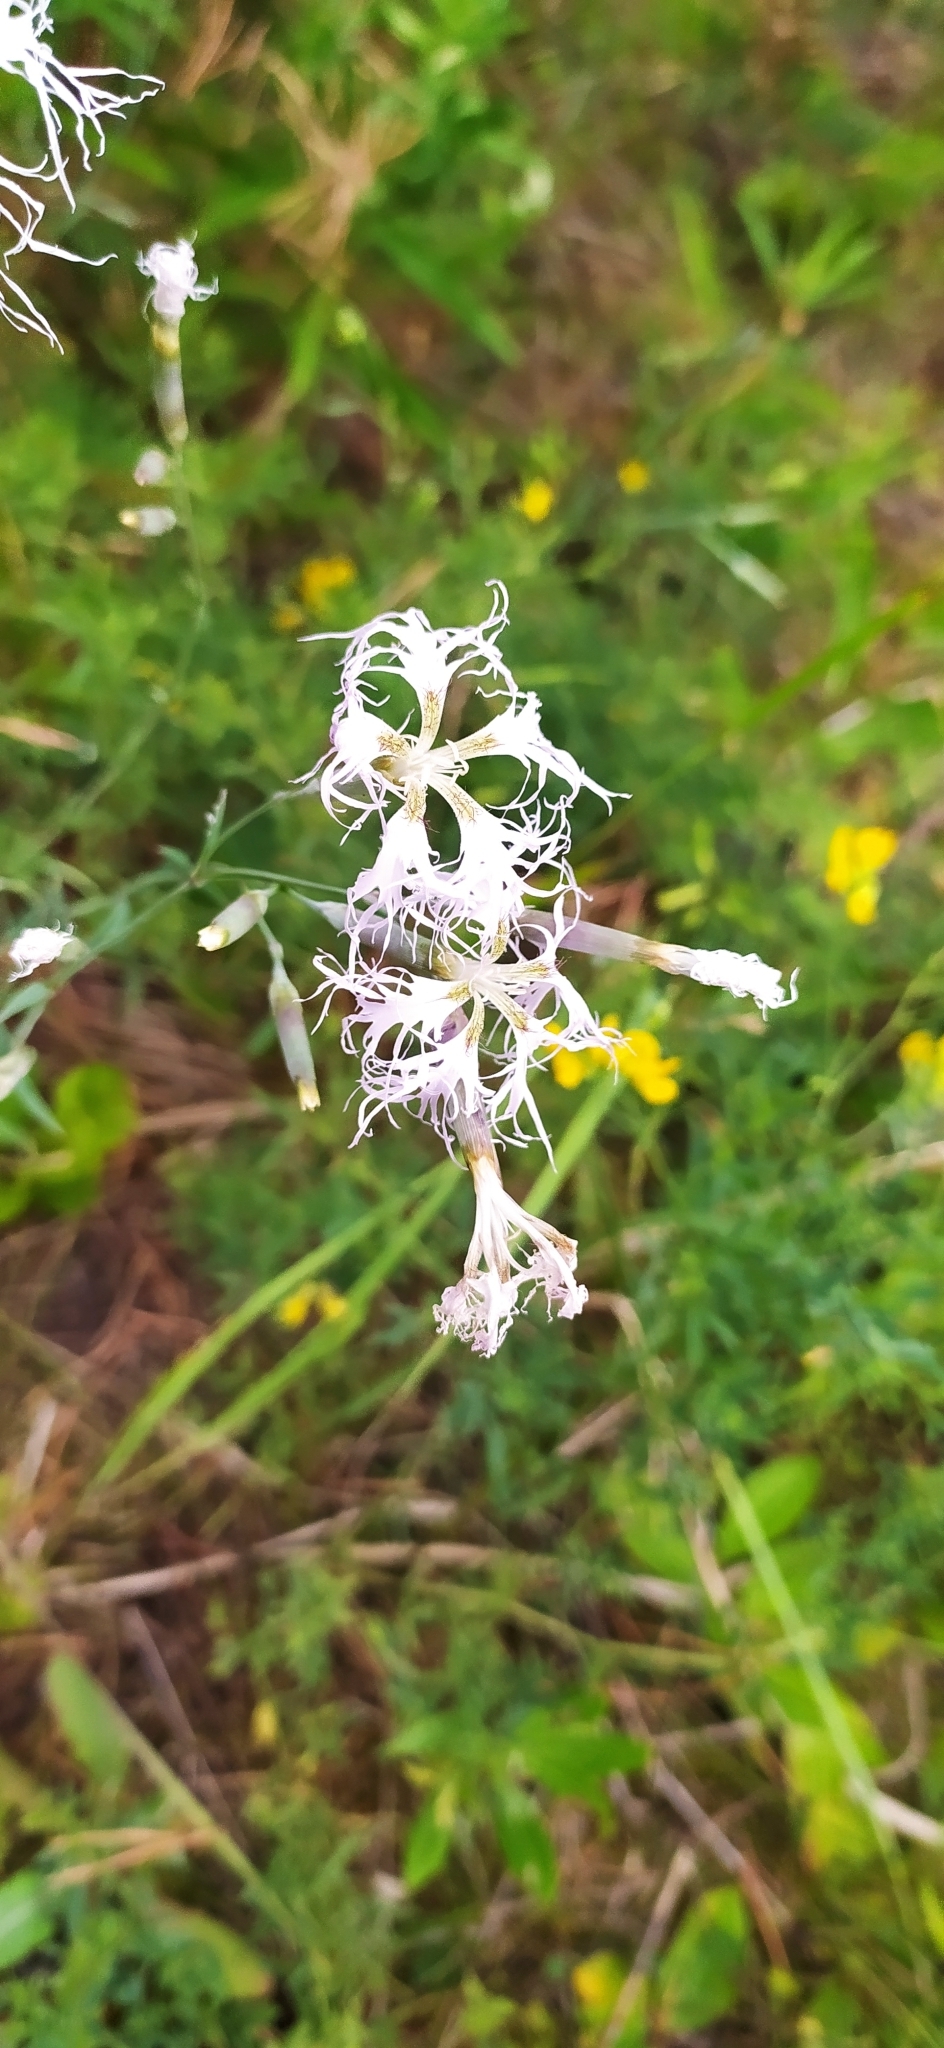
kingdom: Plantae
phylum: Tracheophyta
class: Magnoliopsida
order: Caryophyllales
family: Caryophyllaceae
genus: Dianthus
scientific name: Dianthus superbus
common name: Fringed pink
